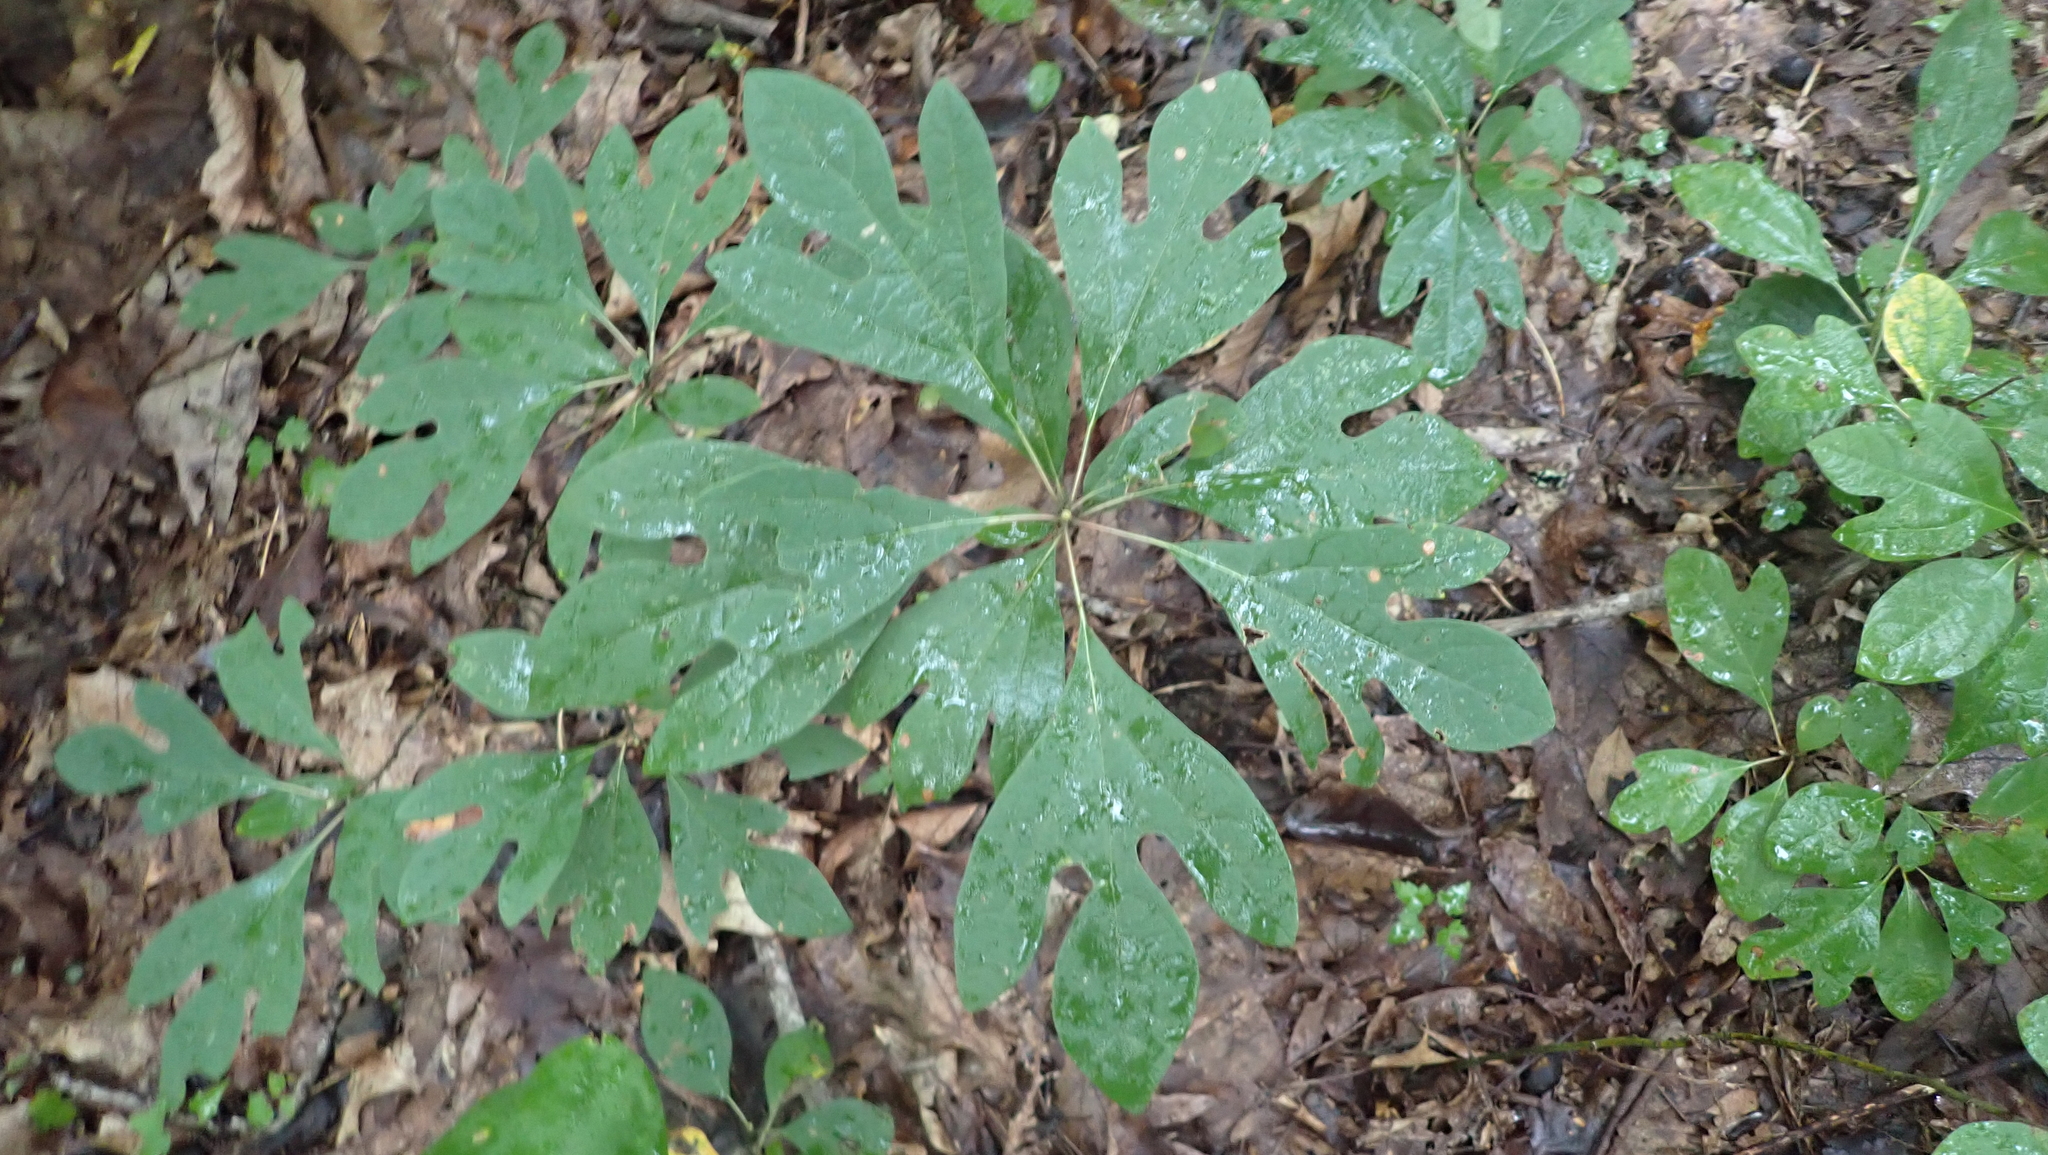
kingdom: Plantae
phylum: Tracheophyta
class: Magnoliopsida
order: Laurales
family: Lauraceae
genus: Sassafras
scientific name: Sassafras albidum
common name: Sassafras
